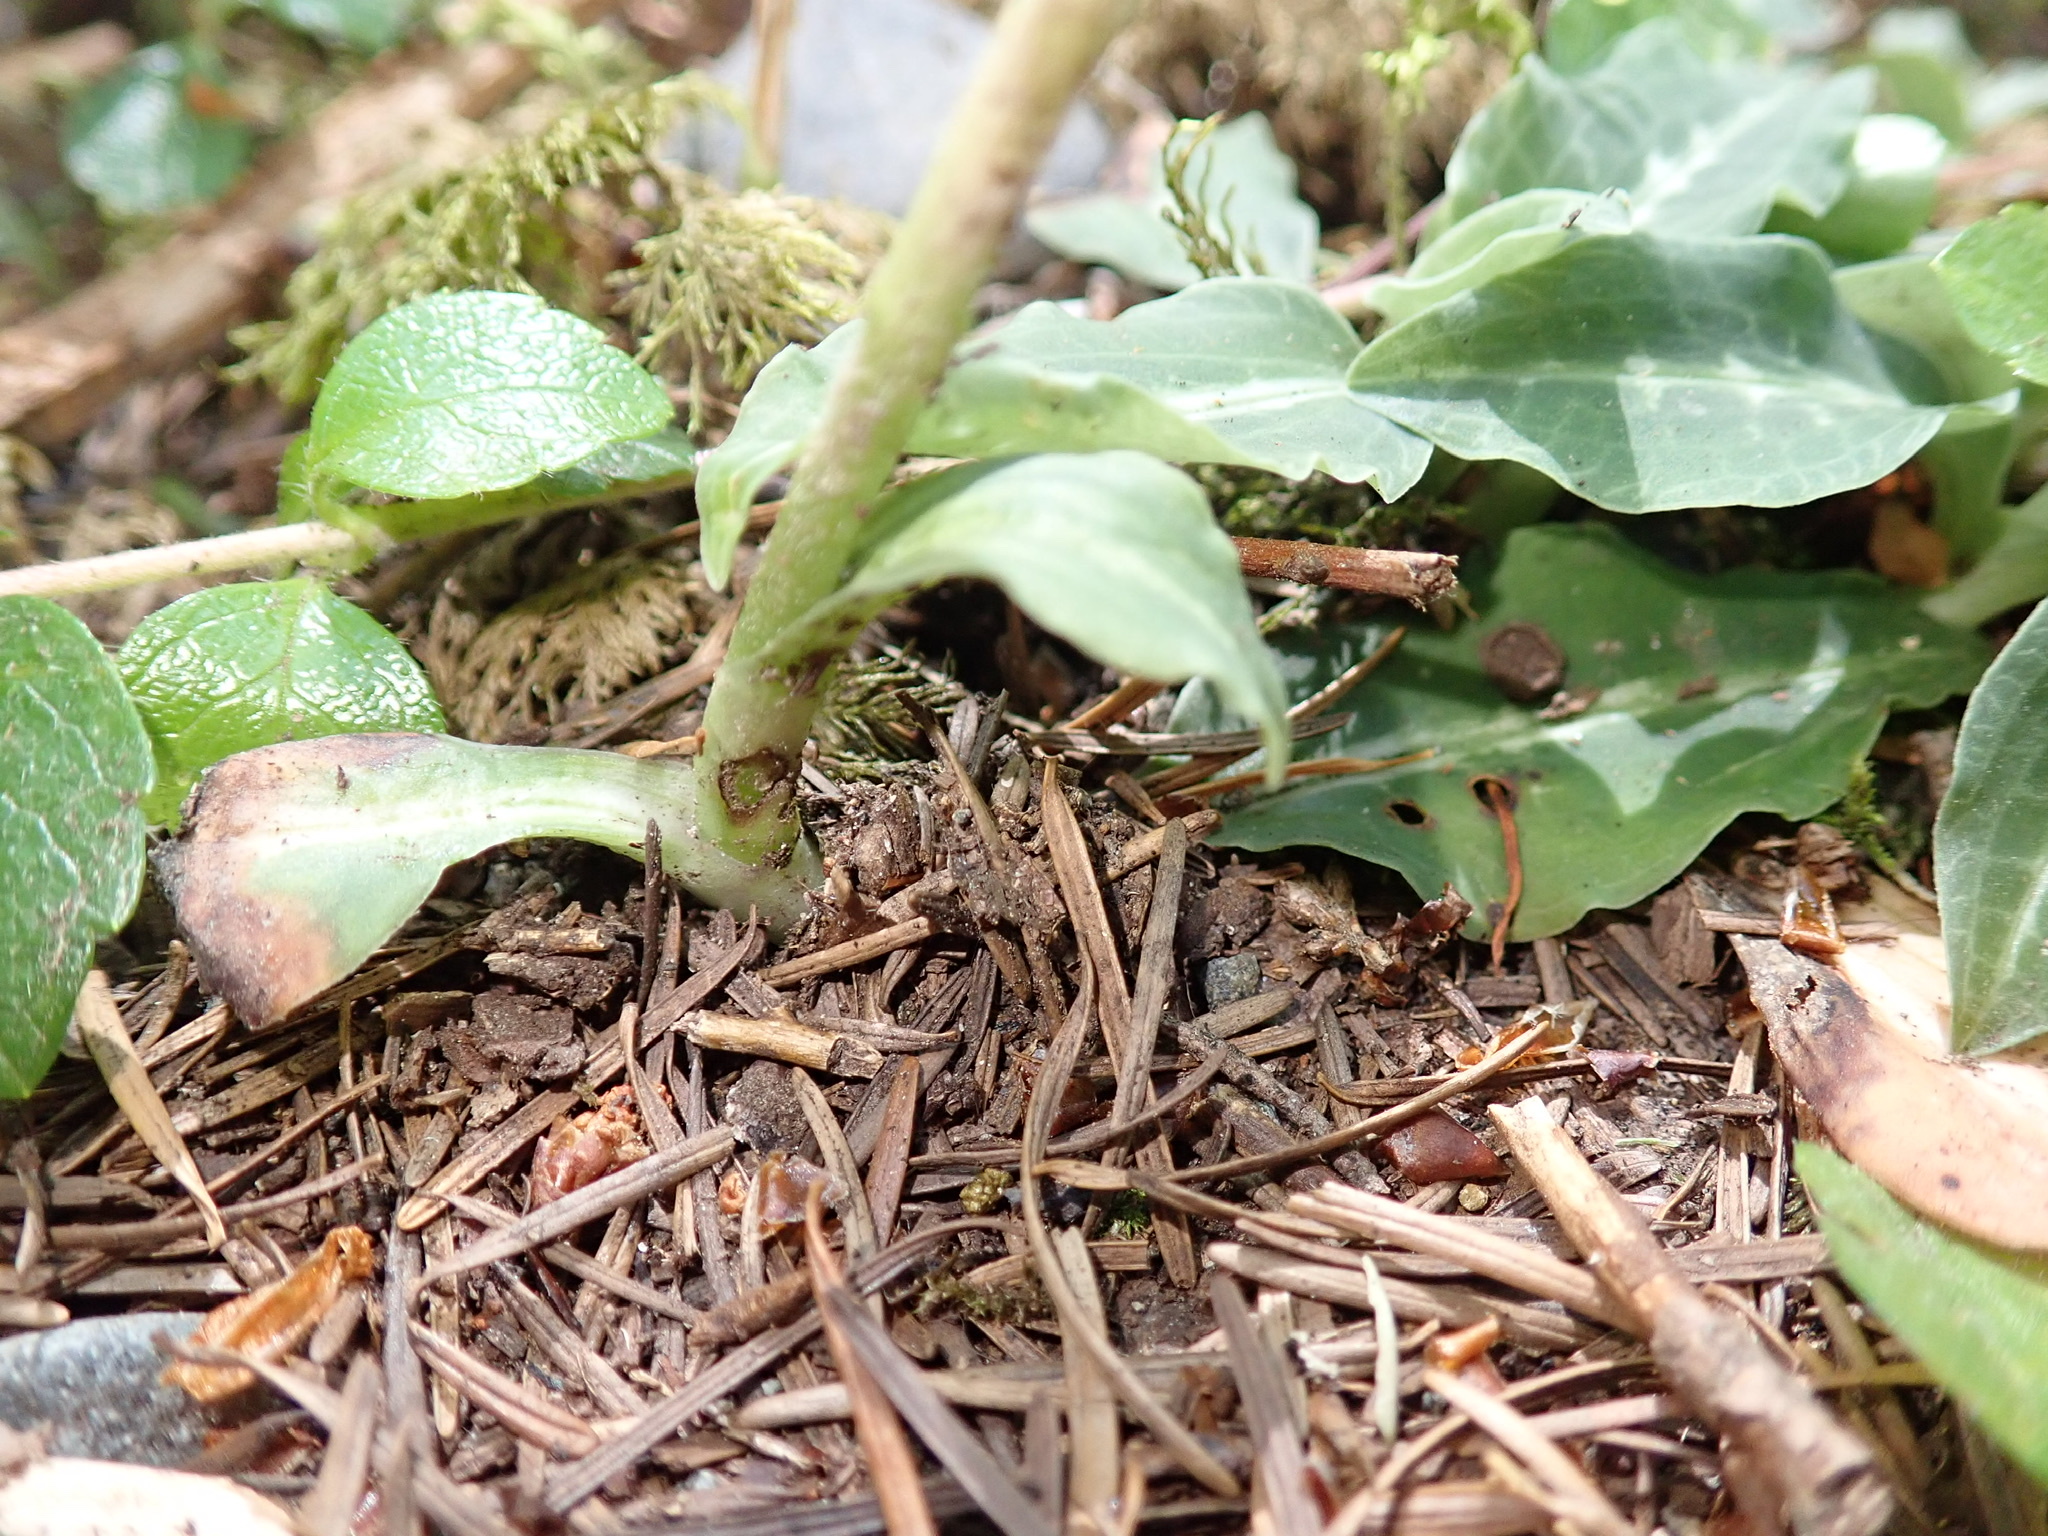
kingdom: Plantae
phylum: Tracheophyta
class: Liliopsida
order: Asparagales
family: Orchidaceae
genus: Goodyera
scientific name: Goodyera oblongifolia
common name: Giant rattlesnake-plantain
